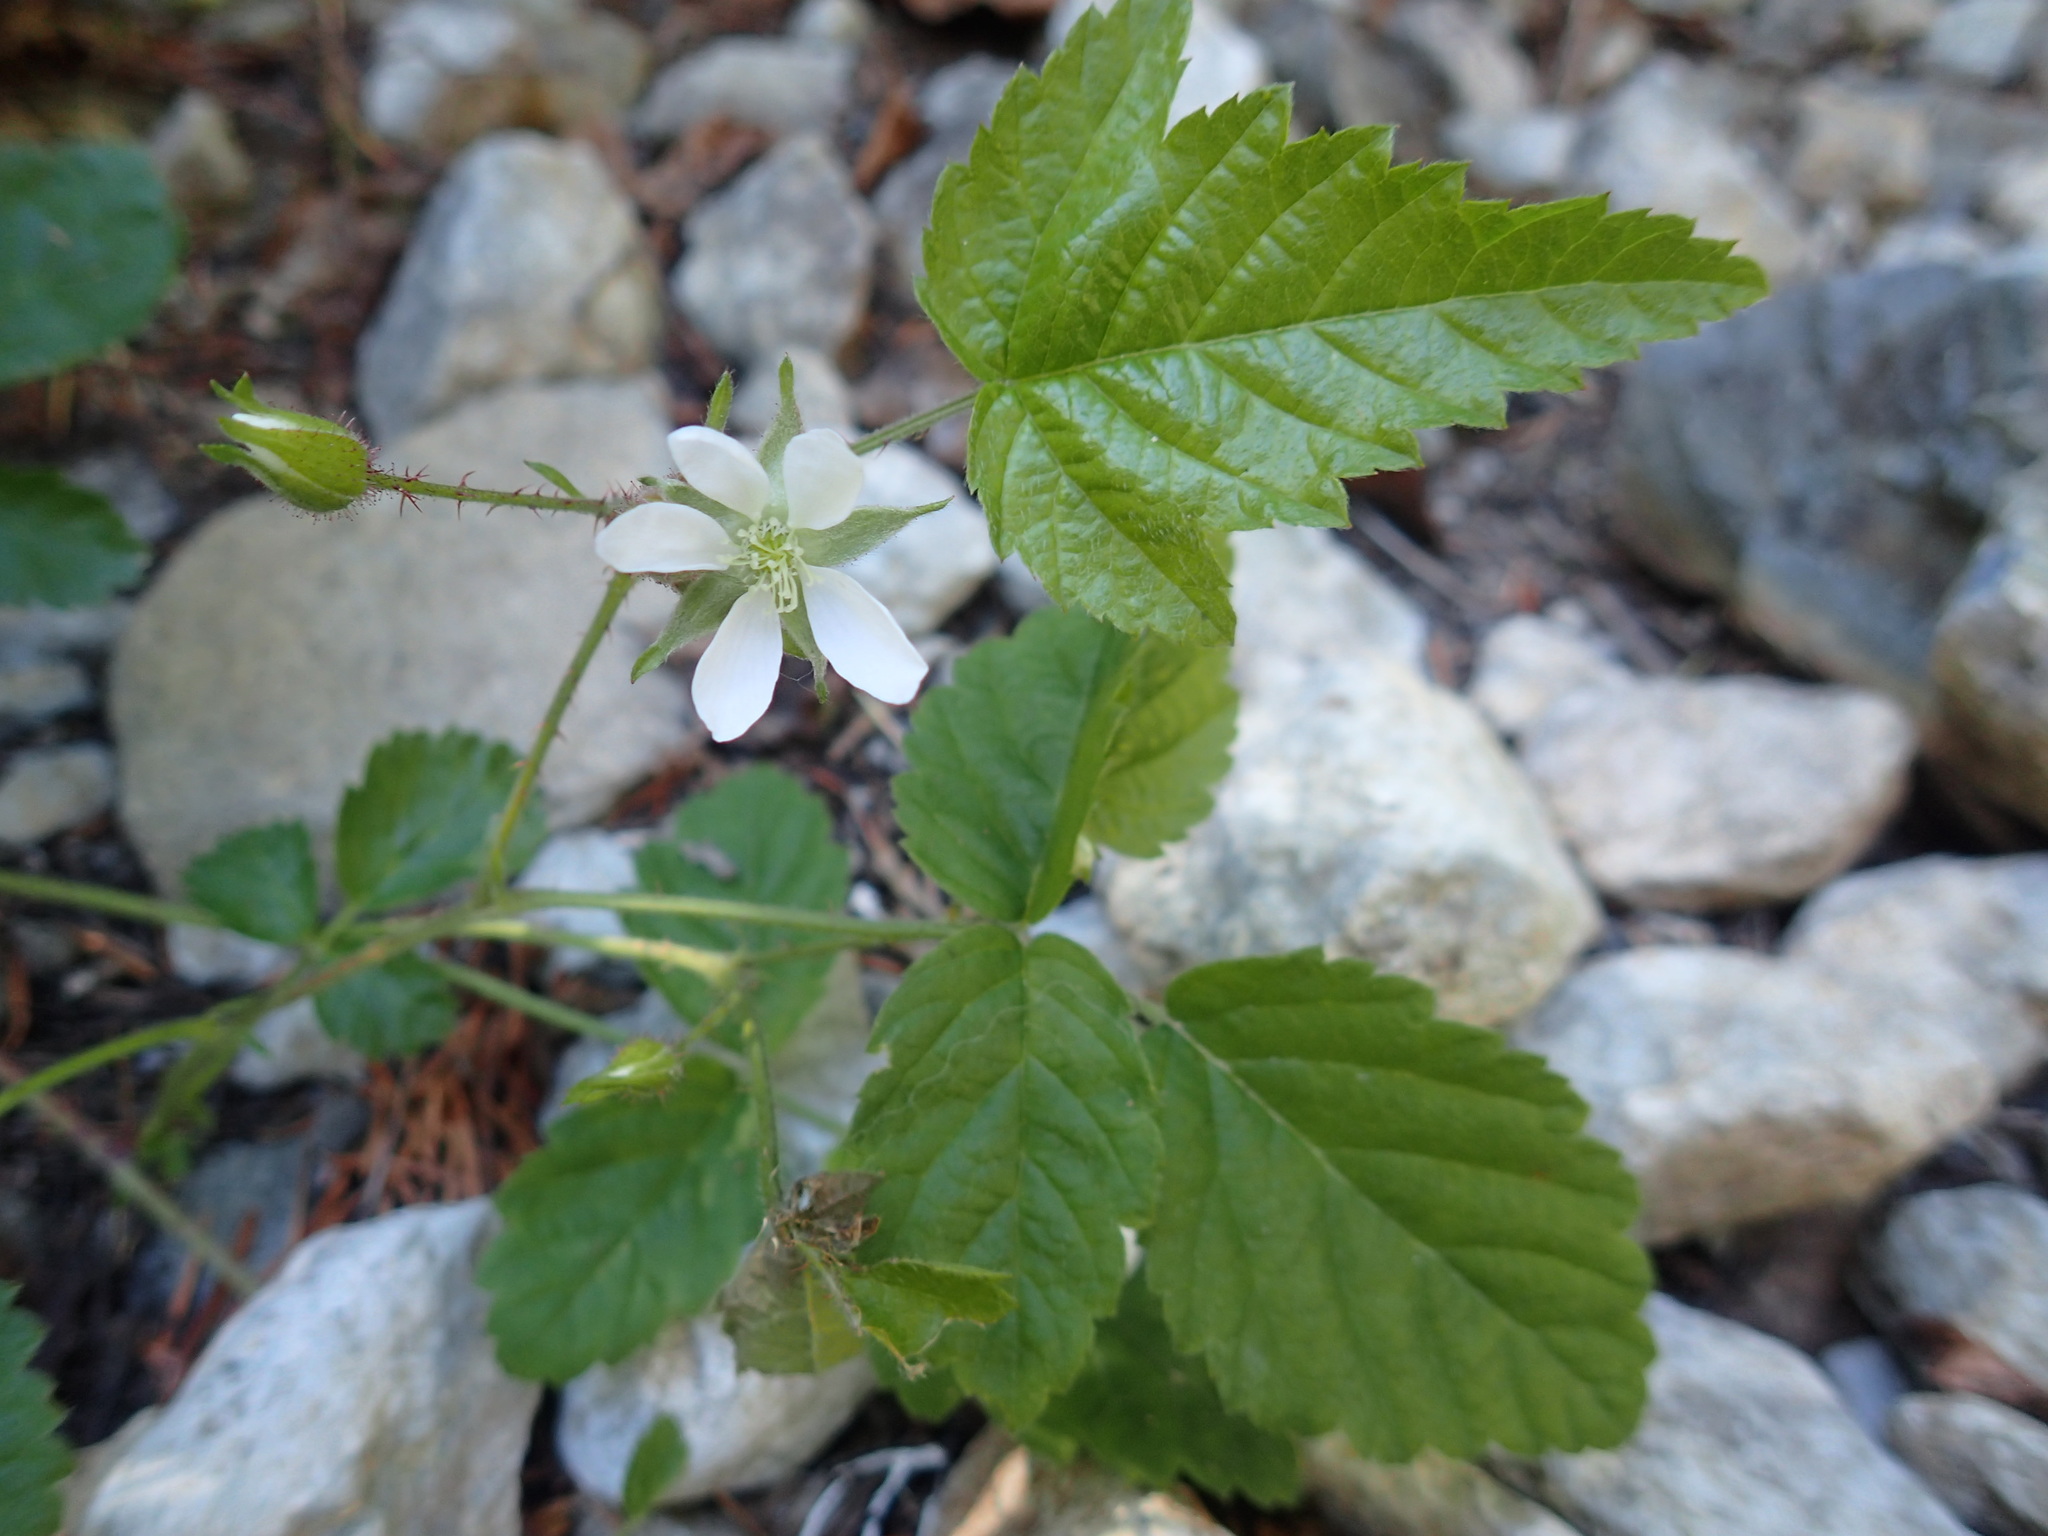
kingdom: Plantae
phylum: Tracheophyta
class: Magnoliopsida
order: Rosales
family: Rosaceae
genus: Rubus
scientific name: Rubus ursinus
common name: Pacific blackberry
